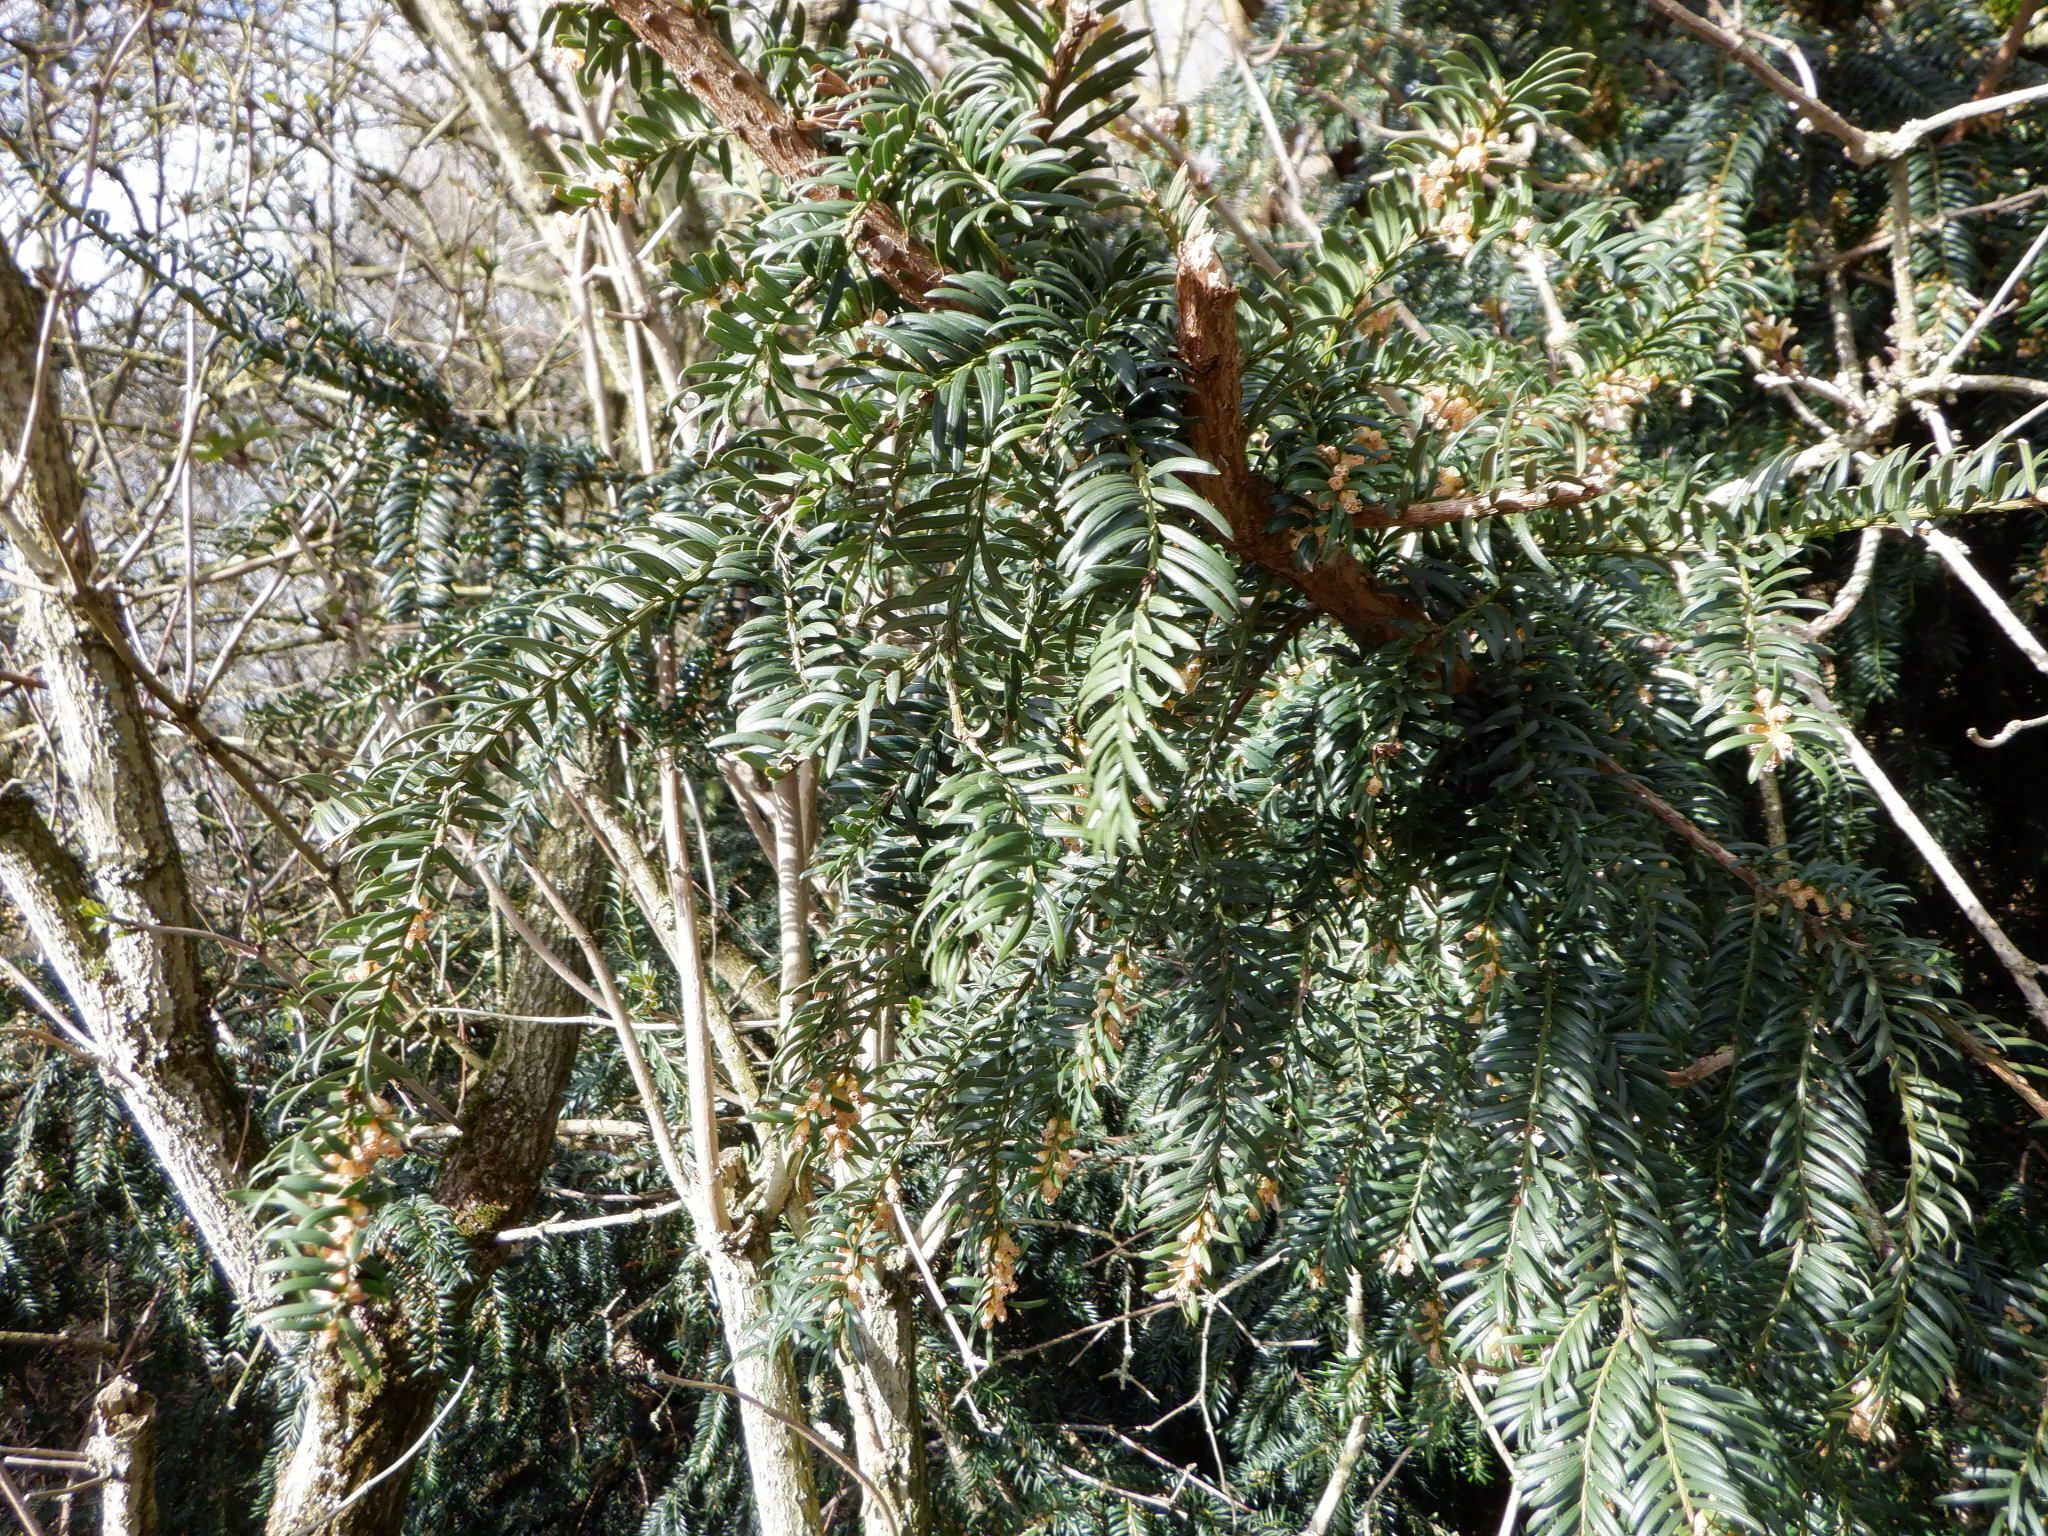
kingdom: Plantae
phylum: Tracheophyta
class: Pinopsida
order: Pinales
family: Taxaceae
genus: Taxus
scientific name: Taxus baccata
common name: Yew
